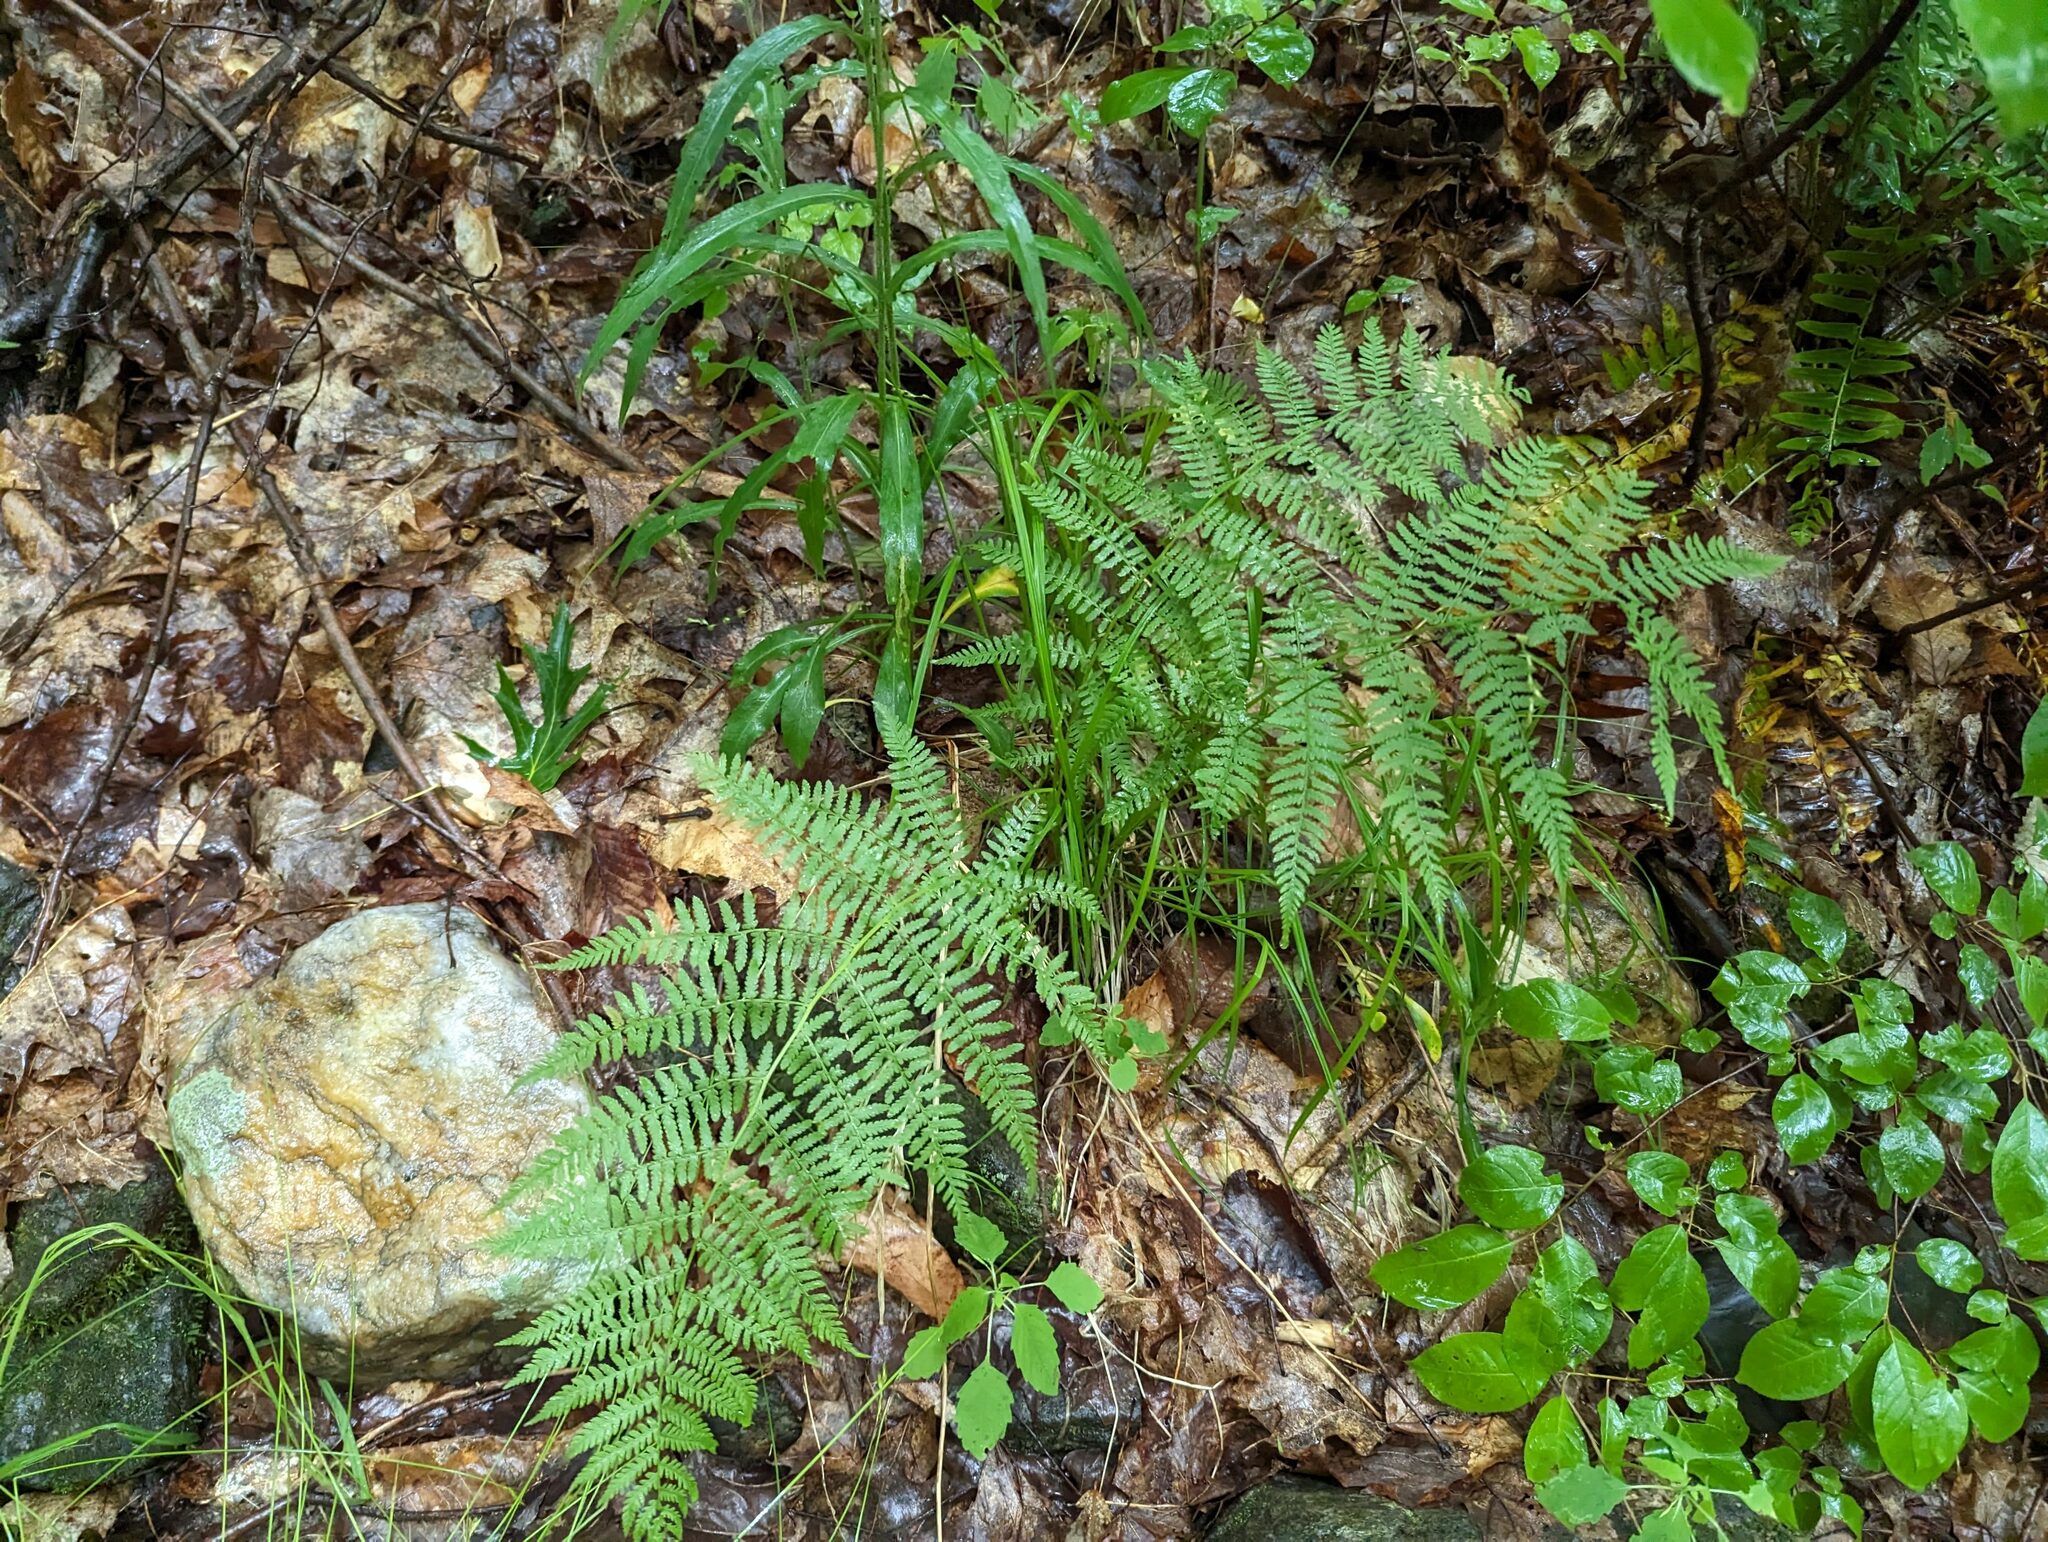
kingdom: Plantae
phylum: Tracheophyta
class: Polypodiopsida
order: Polypodiales
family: Athyriaceae
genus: Athyrium
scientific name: Athyrium angustum
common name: Northern lady fern
